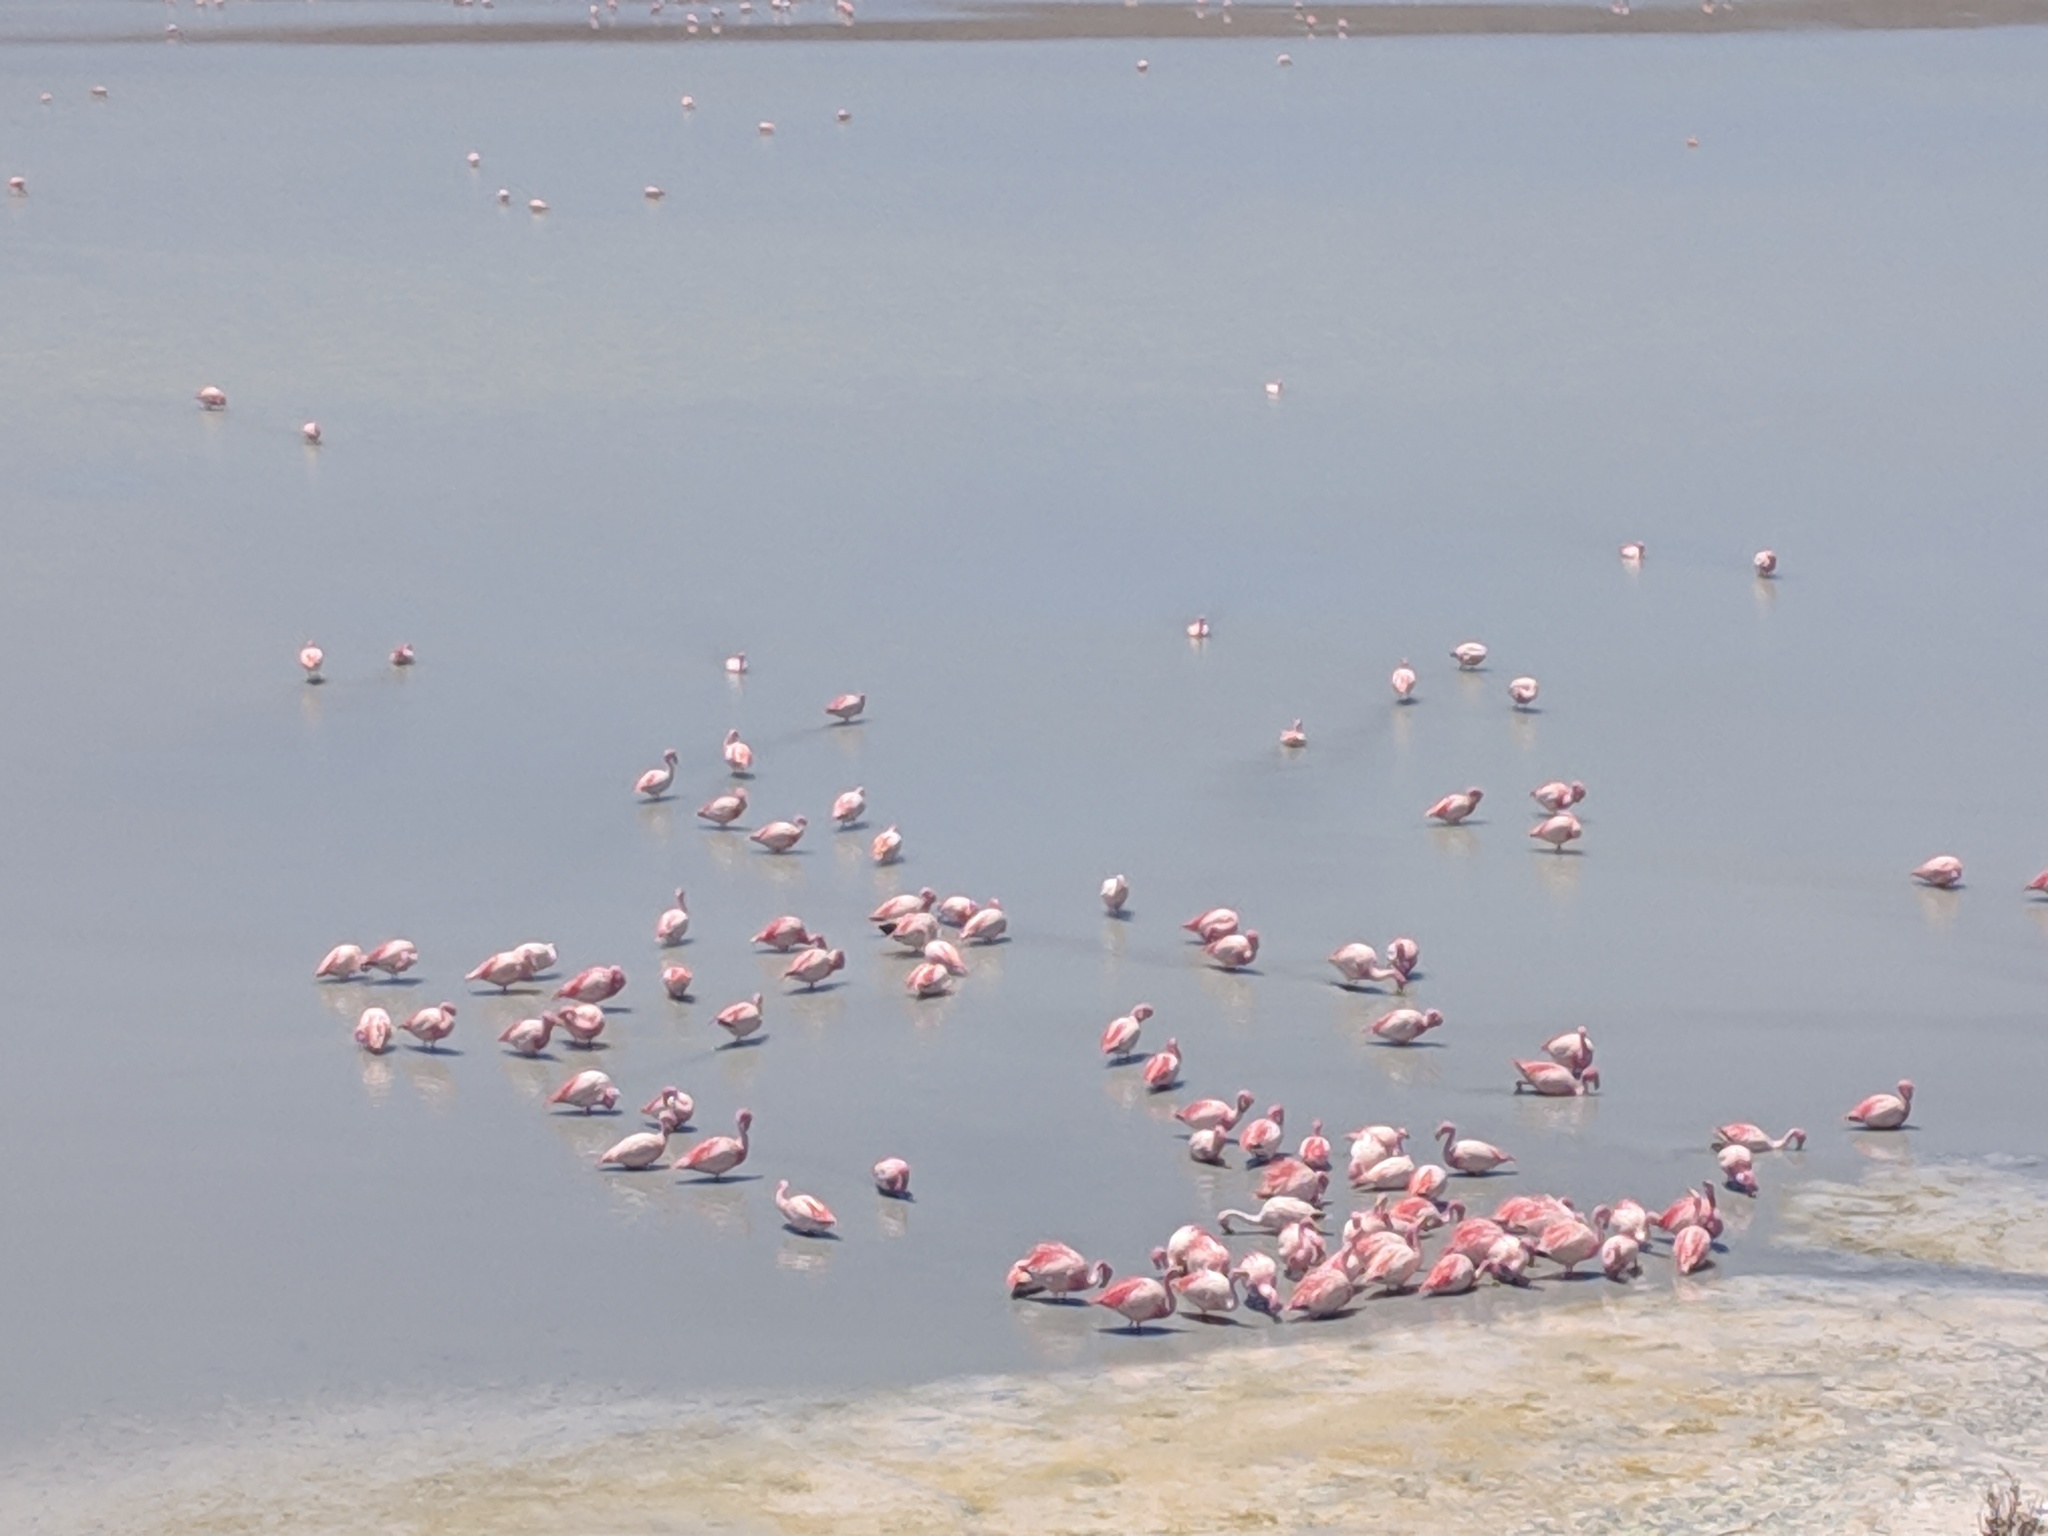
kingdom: Animalia
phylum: Chordata
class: Aves
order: Phoenicopteriformes
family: Phoenicopteridae
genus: Phoenicoparrus
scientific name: Phoenicoparrus jamesi
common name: James's flamingo
